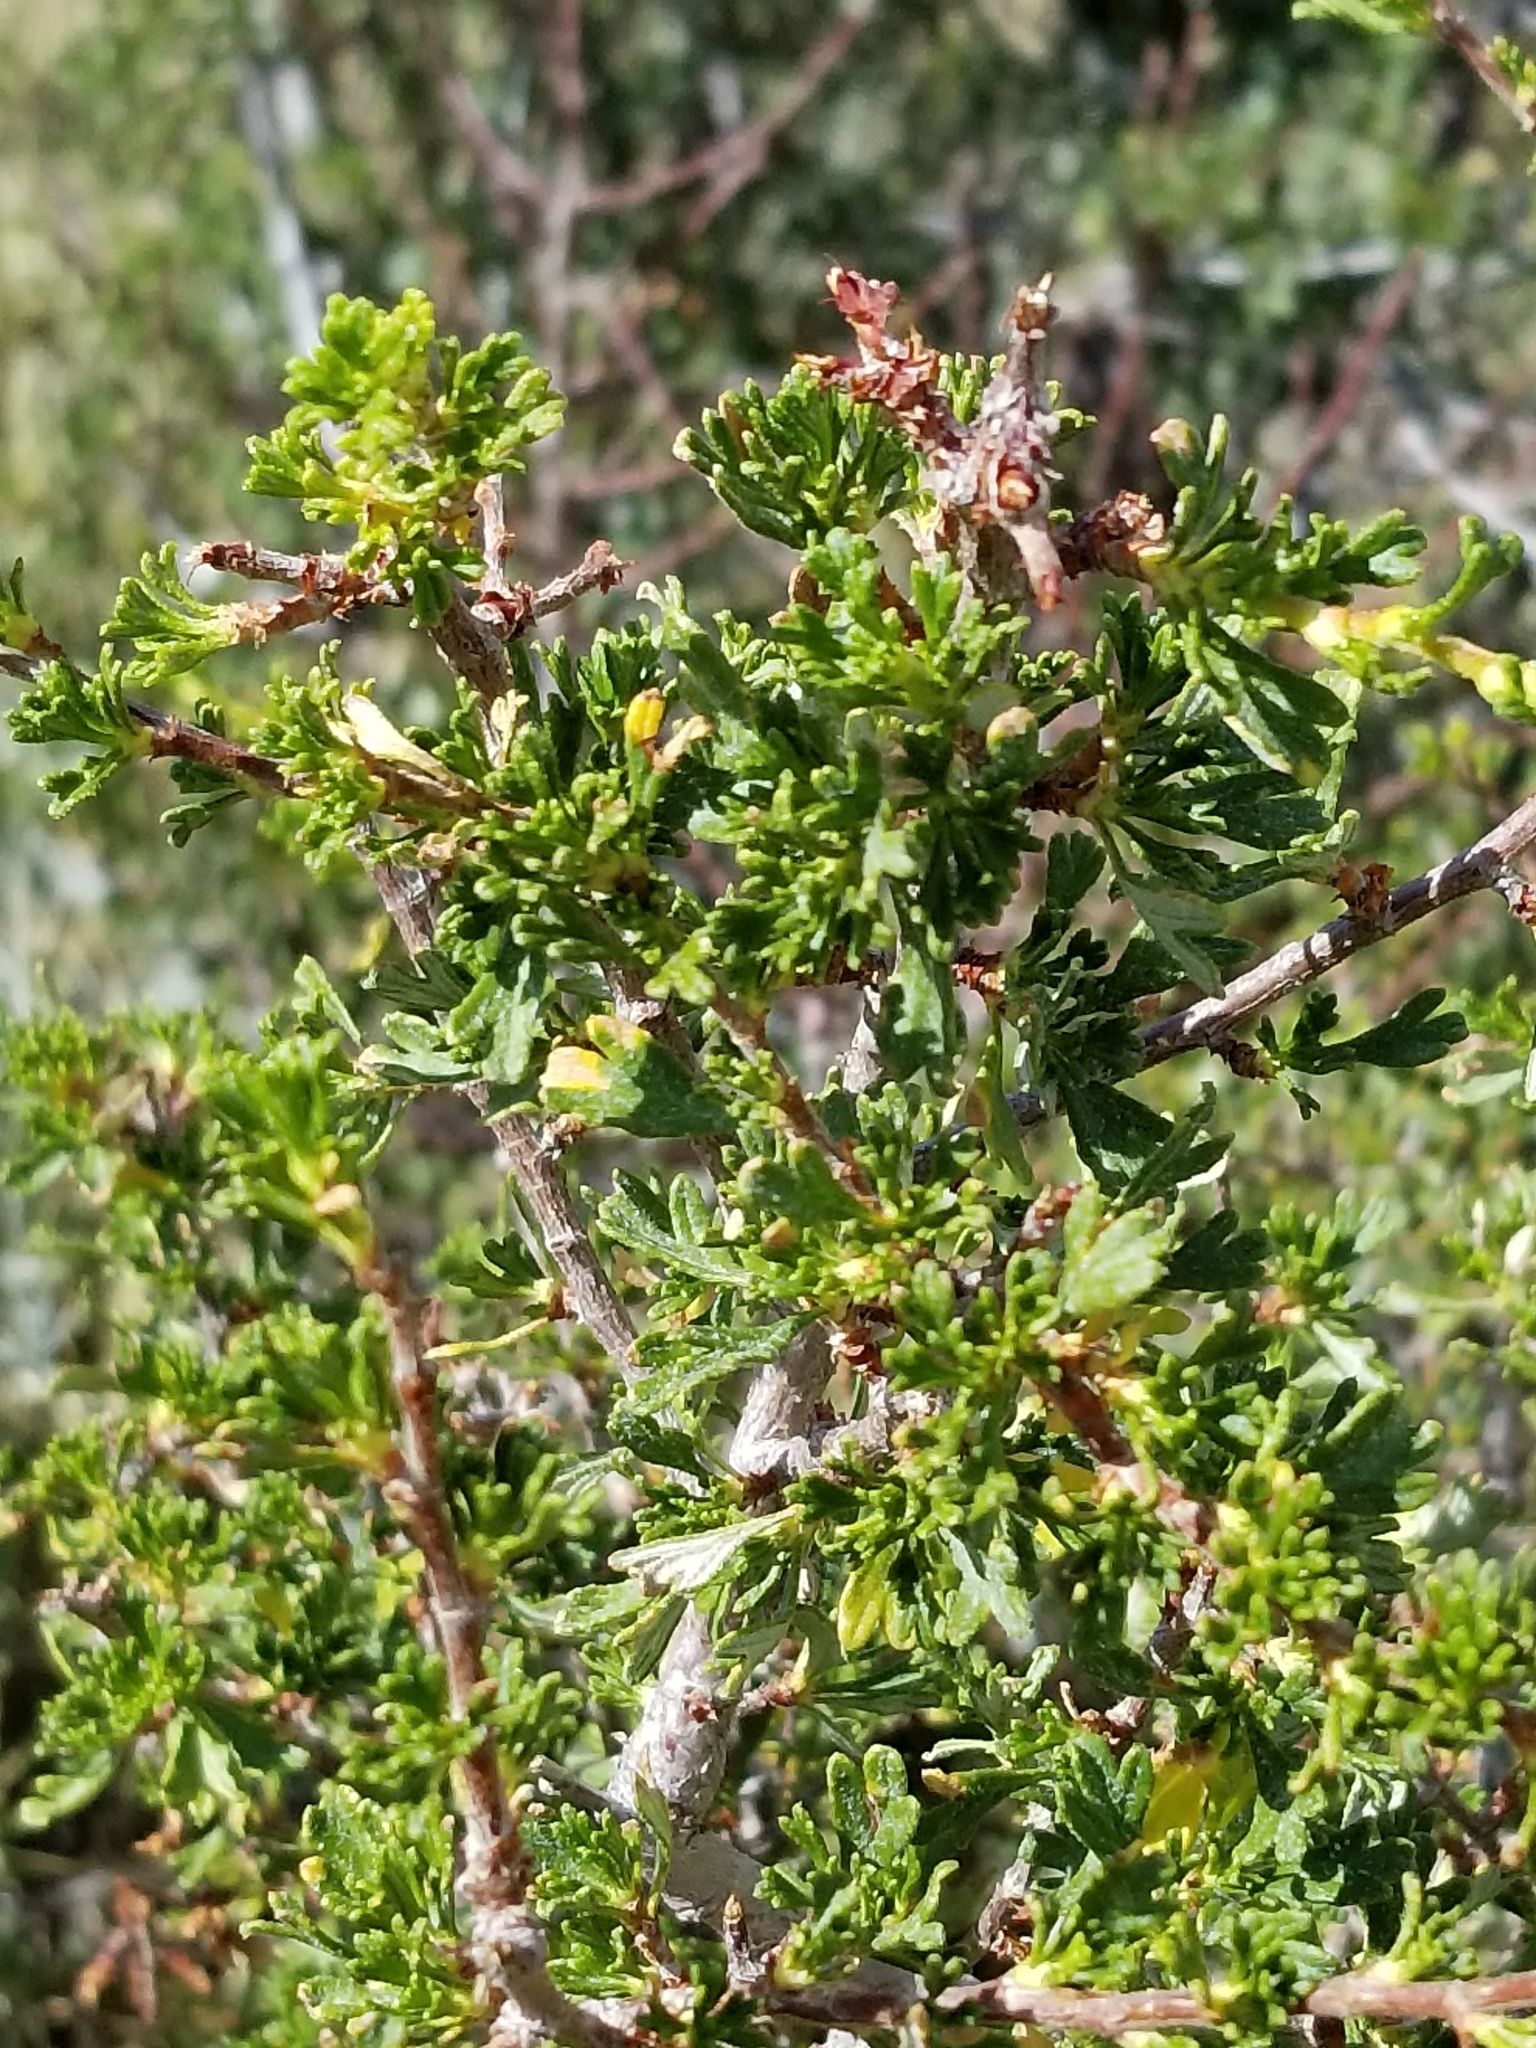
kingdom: Plantae
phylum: Tracheophyta
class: Magnoliopsida
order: Rosales
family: Rosaceae
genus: Purshia
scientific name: Purshia tridentata
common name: Antelope bitterbrush
